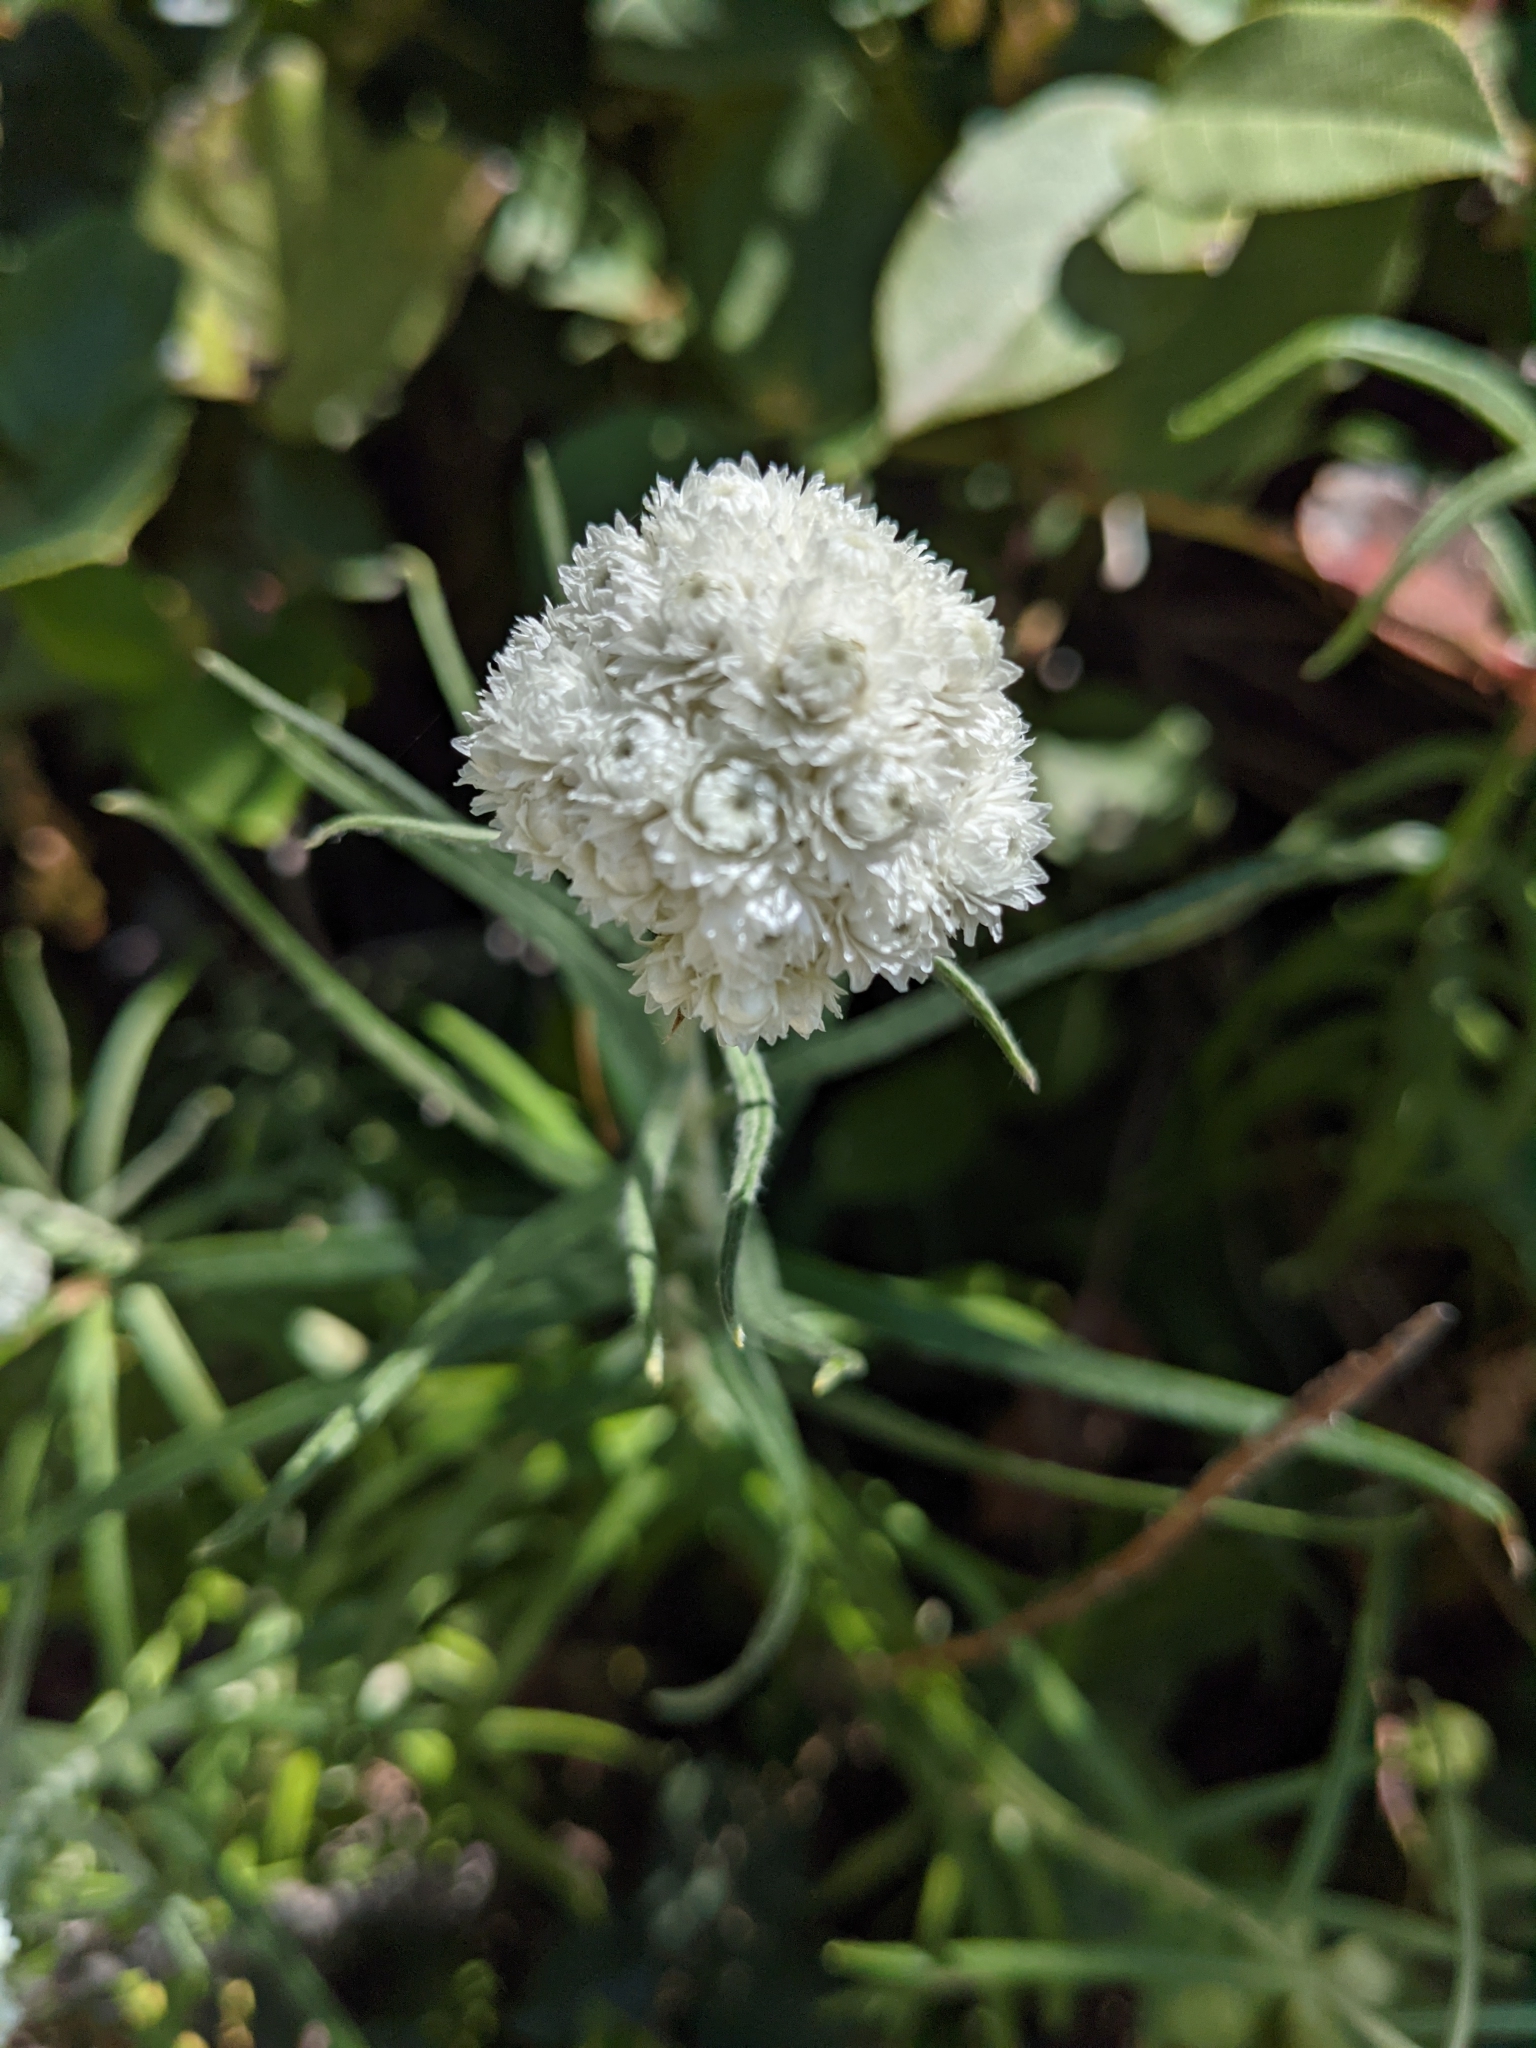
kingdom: Plantae
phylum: Tracheophyta
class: Magnoliopsida
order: Asterales
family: Asteraceae
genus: Anaphalis
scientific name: Anaphalis margaritacea
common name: Pearly everlasting
